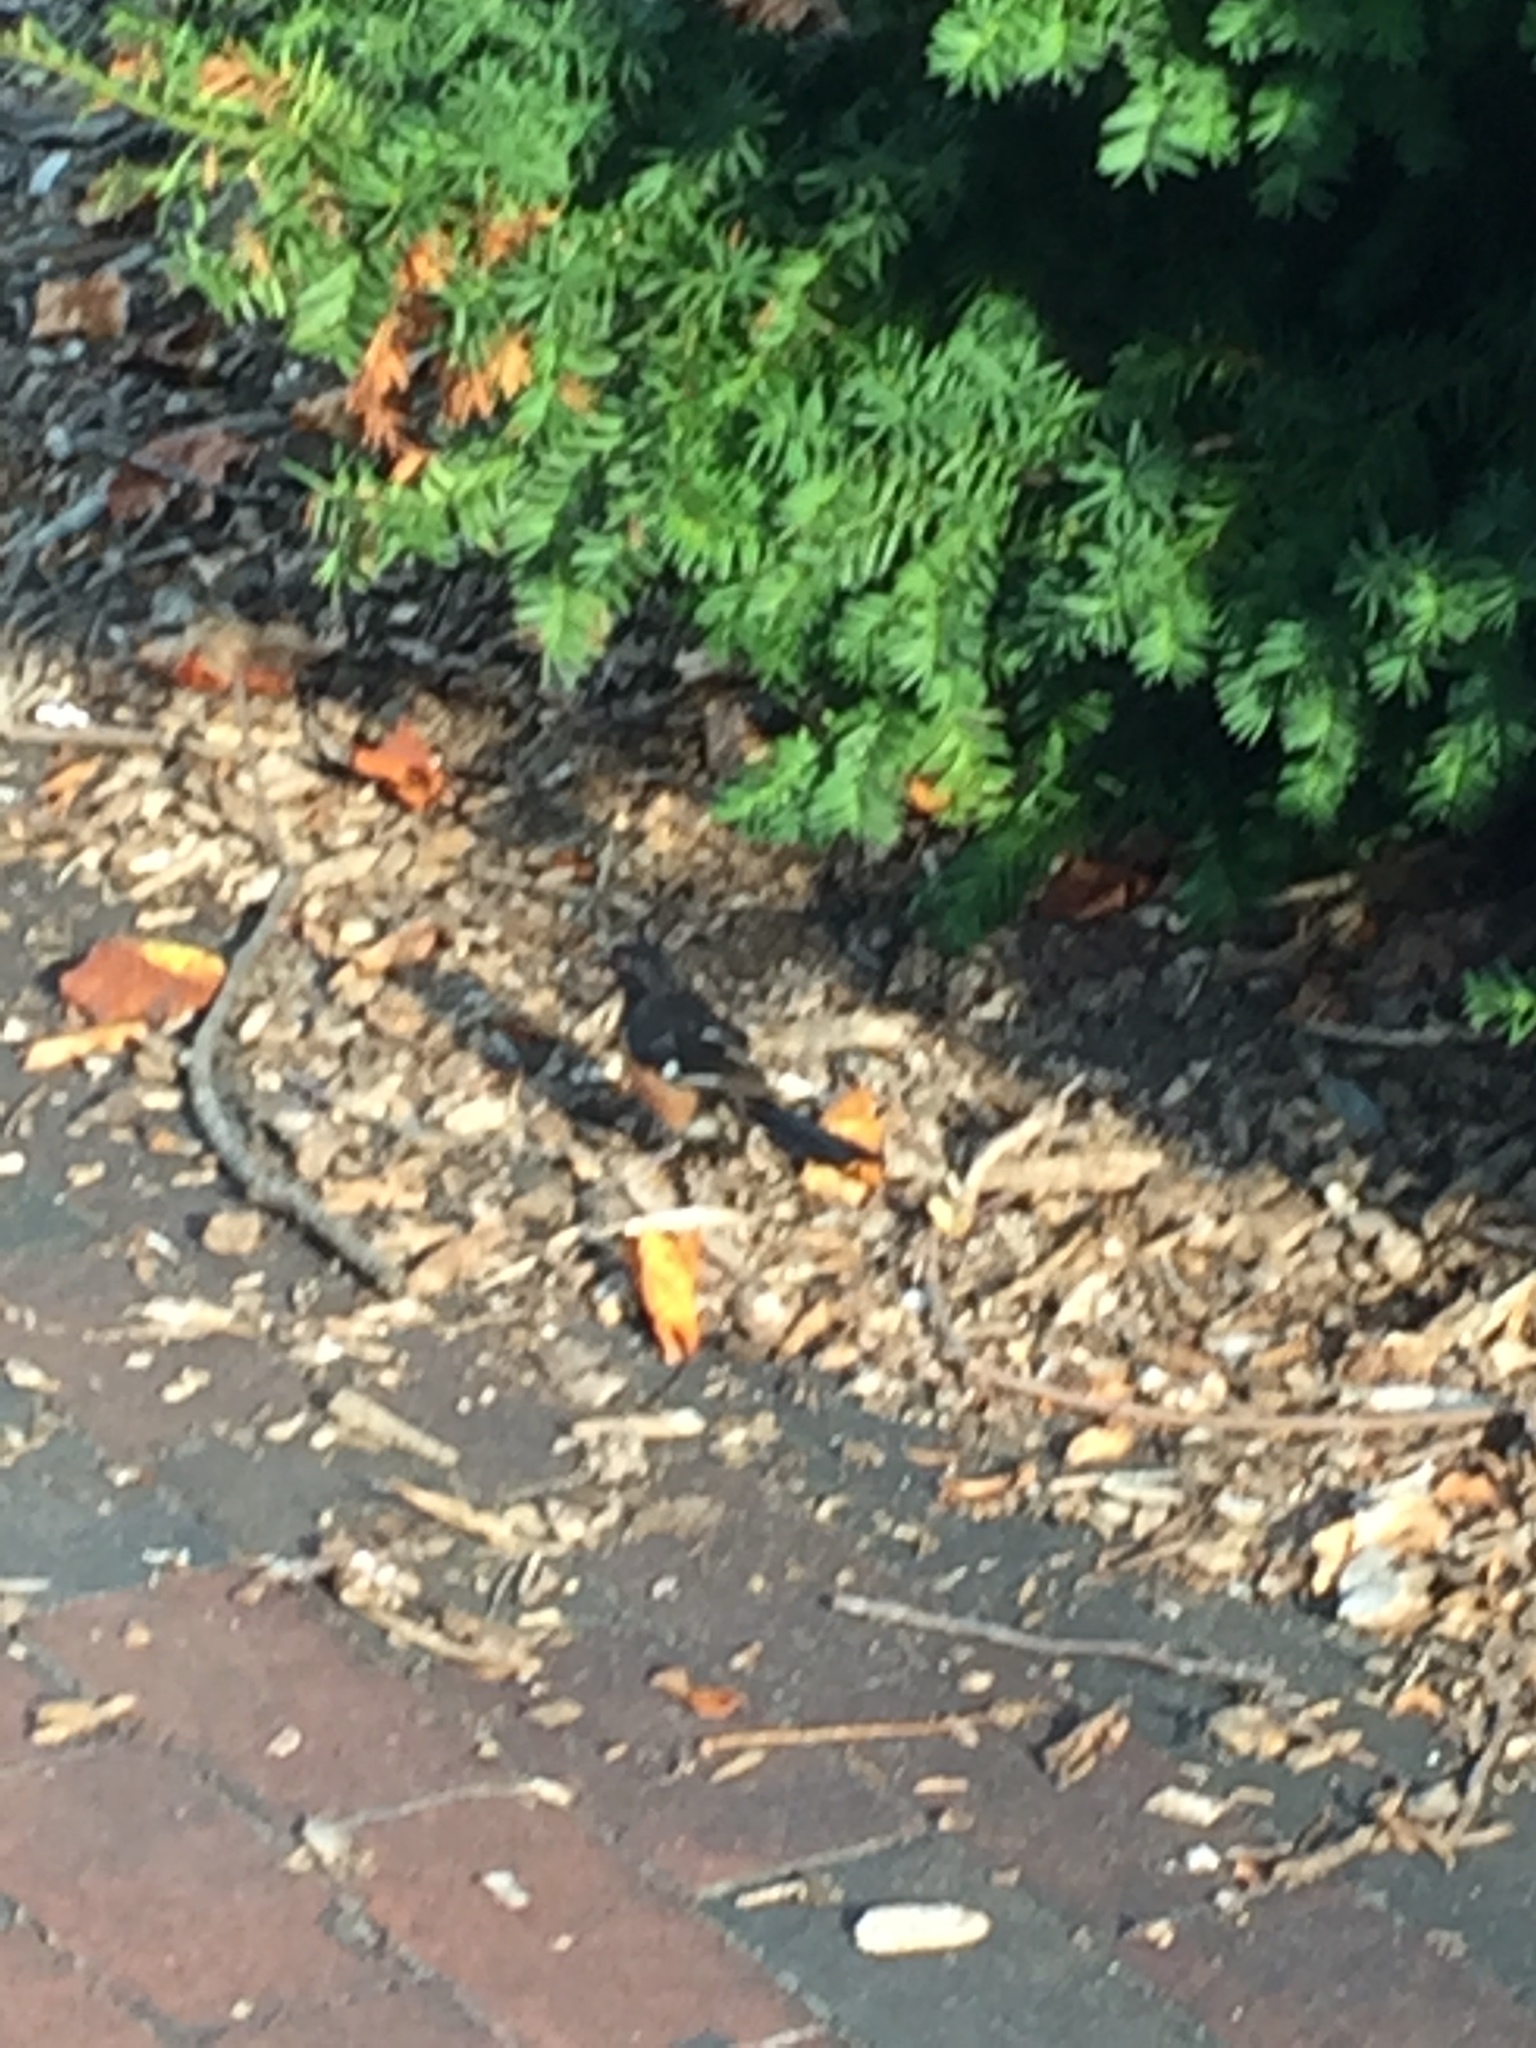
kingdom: Animalia
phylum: Chordata
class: Aves
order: Passeriformes
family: Passerellidae
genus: Pipilo
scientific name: Pipilo erythrophthalmus
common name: Eastern towhee
